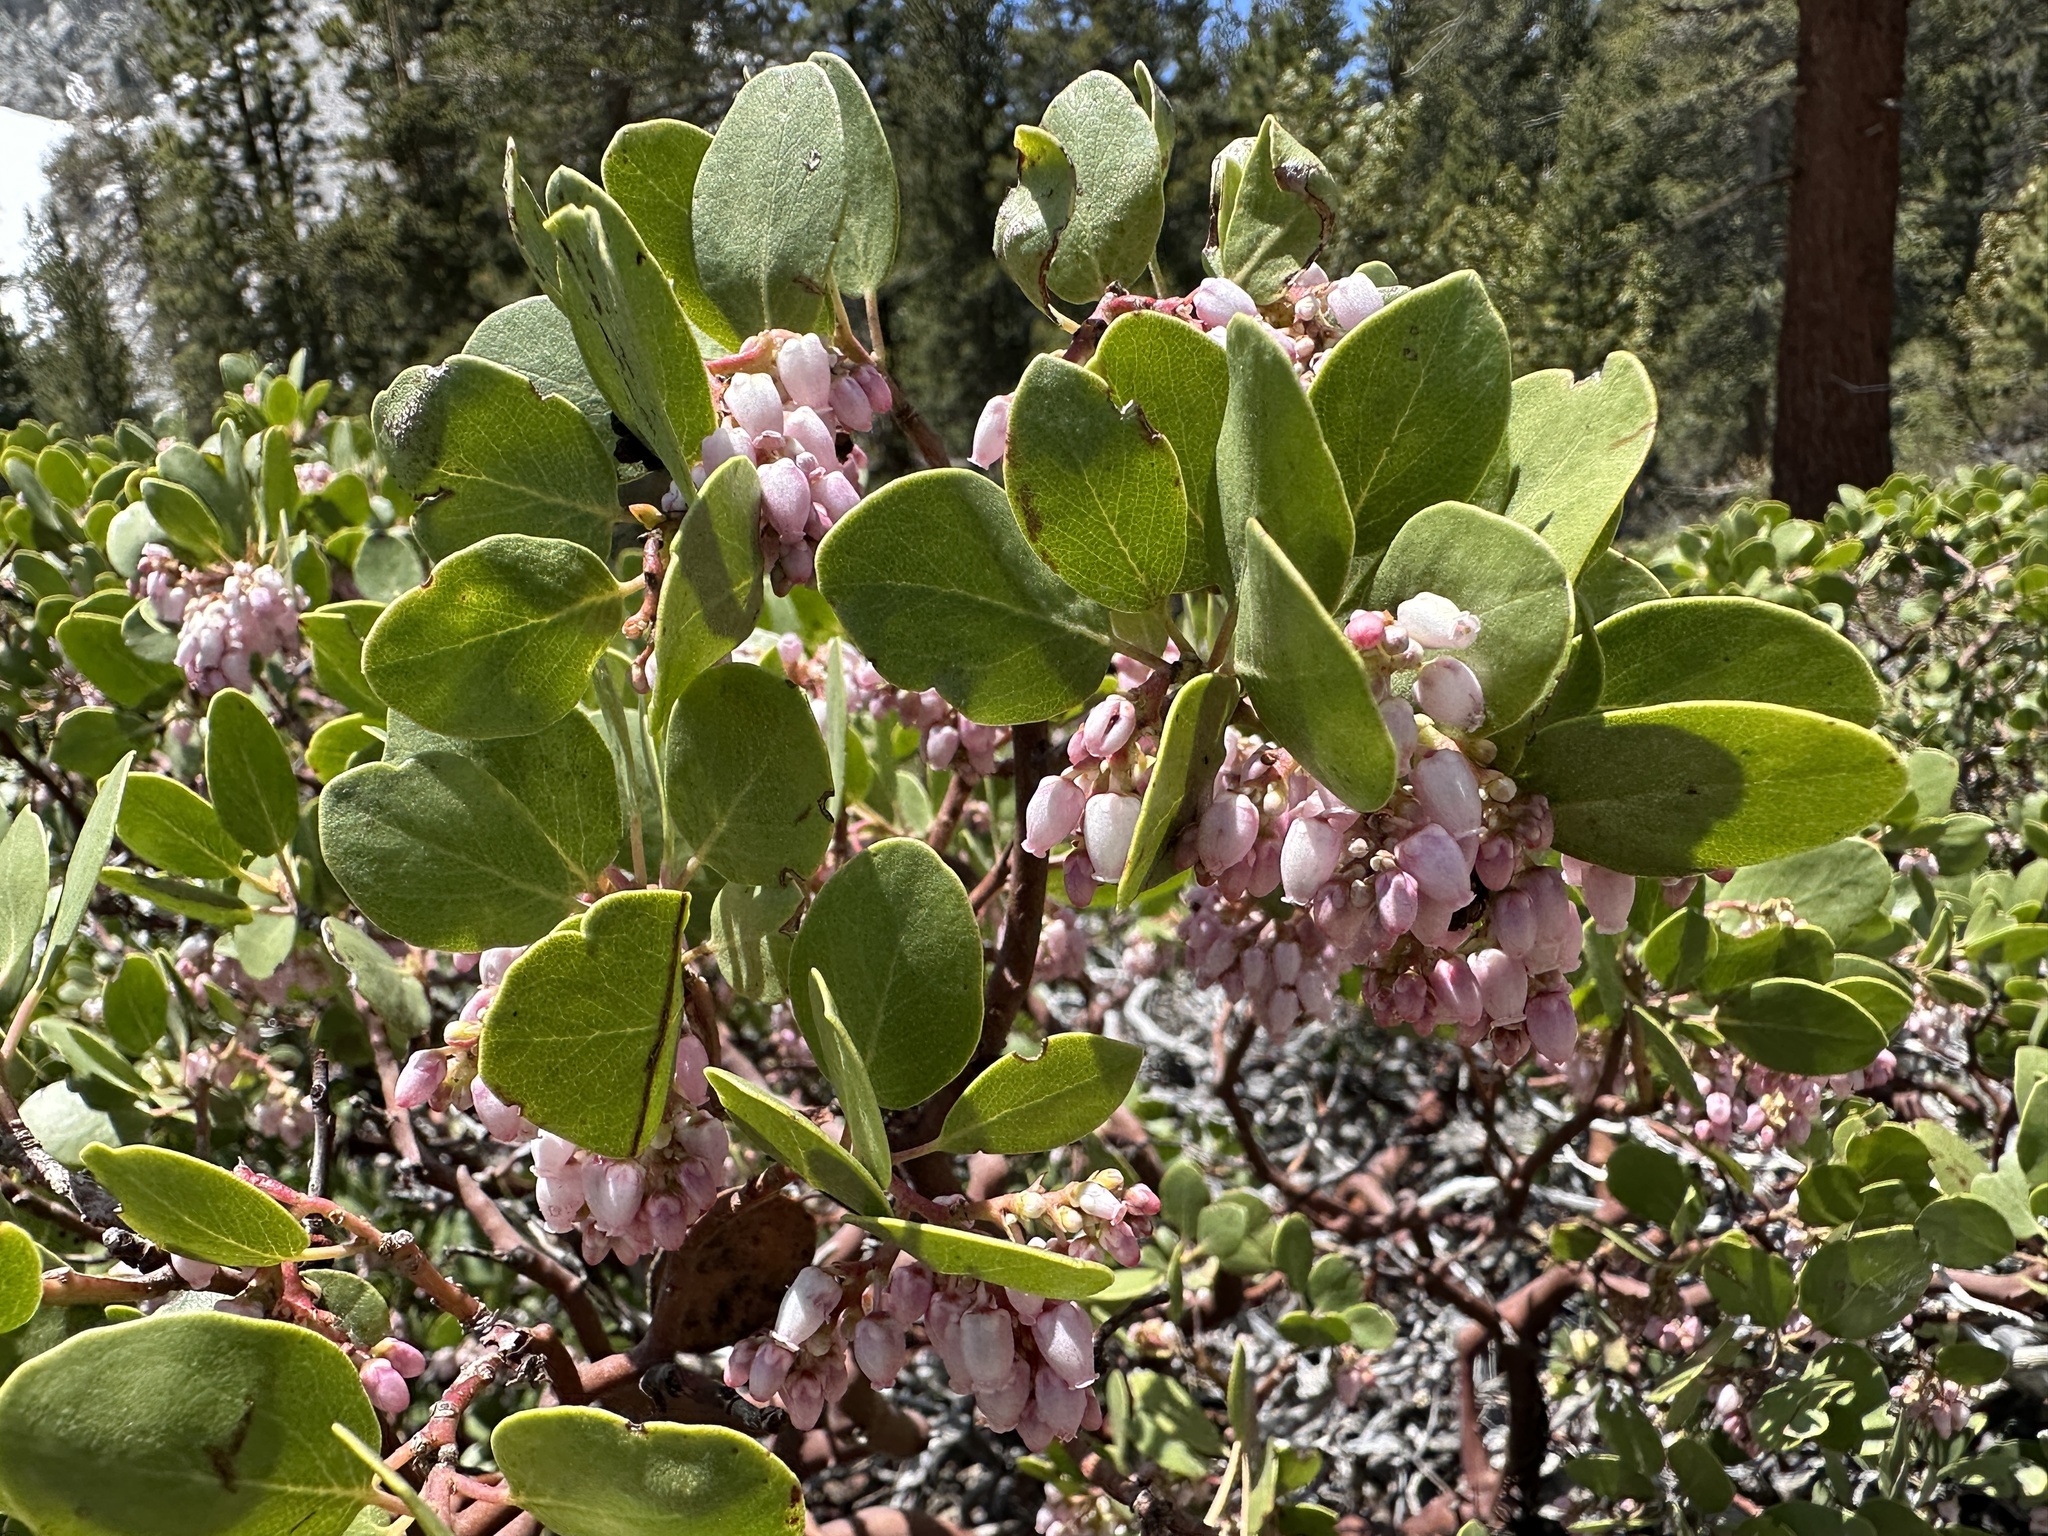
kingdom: Plantae
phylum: Tracheophyta
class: Magnoliopsida
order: Ericales
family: Ericaceae
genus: Arctostaphylos
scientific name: Arctostaphylos patula
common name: Green-leaf manzanita
